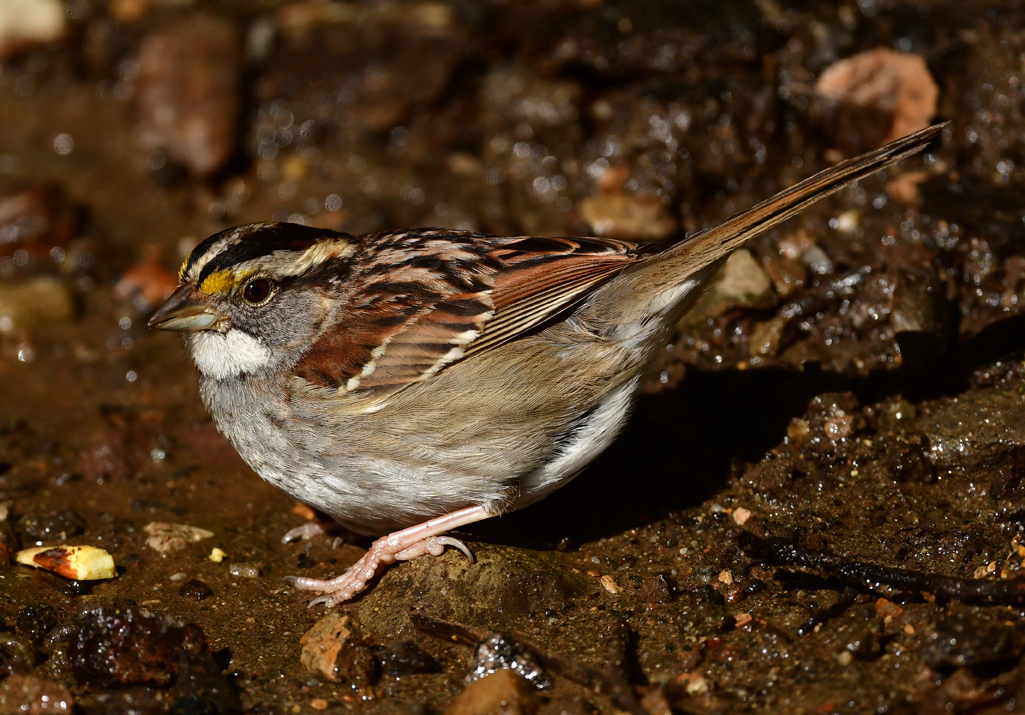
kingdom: Animalia
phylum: Chordata
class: Aves
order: Passeriformes
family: Passerellidae
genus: Zonotrichia
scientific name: Zonotrichia albicollis
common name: White-throated sparrow
